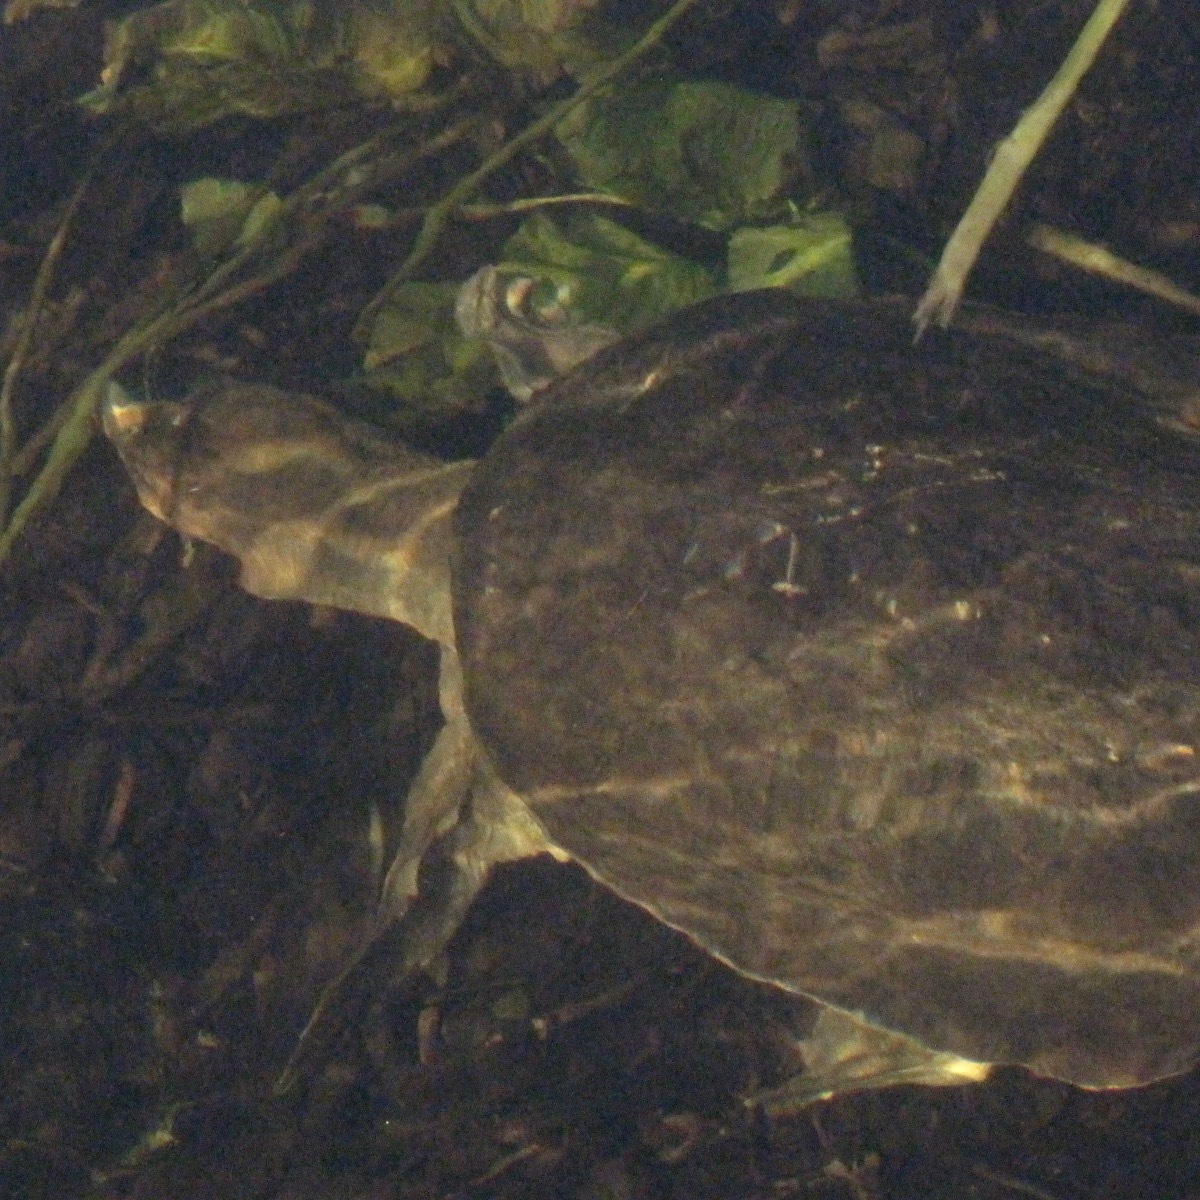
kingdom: Animalia
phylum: Chordata
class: Testudines
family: Trionychidae
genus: Apalone
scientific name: Apalone ferox
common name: Florida softshell turtle
